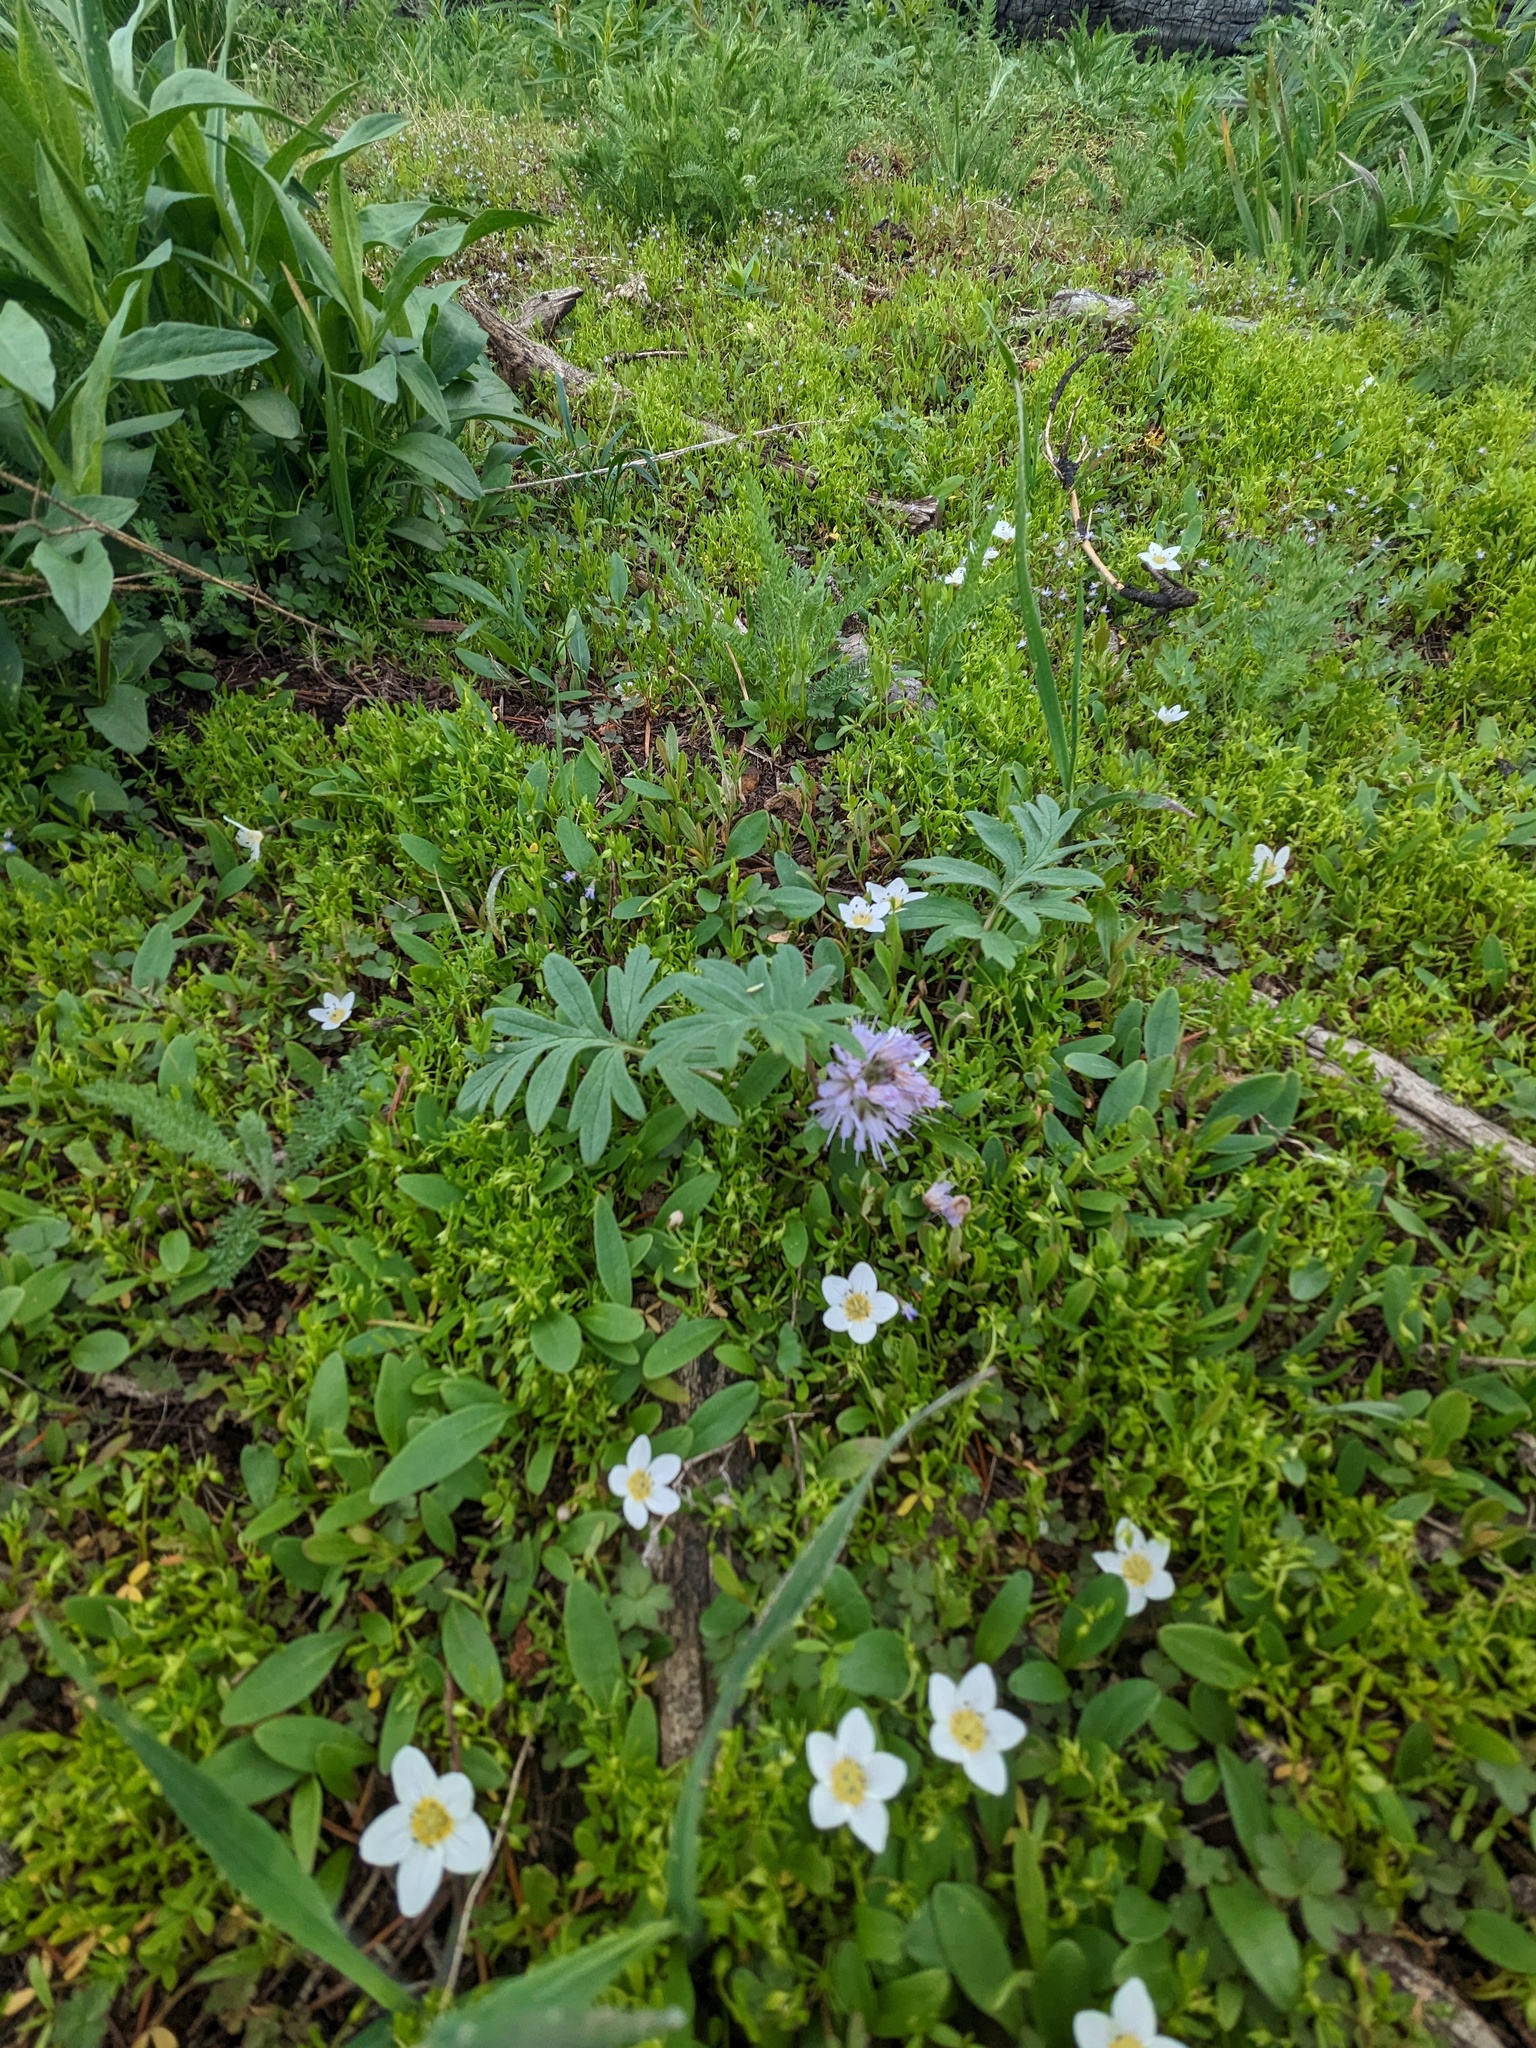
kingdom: Plantae
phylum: Tracheophyta
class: Magnoliopsida
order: Boraginales
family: Hydrophyllaceae
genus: Hydrophyllum
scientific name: Hydrophyllum capitatum
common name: Woollen-breeches
